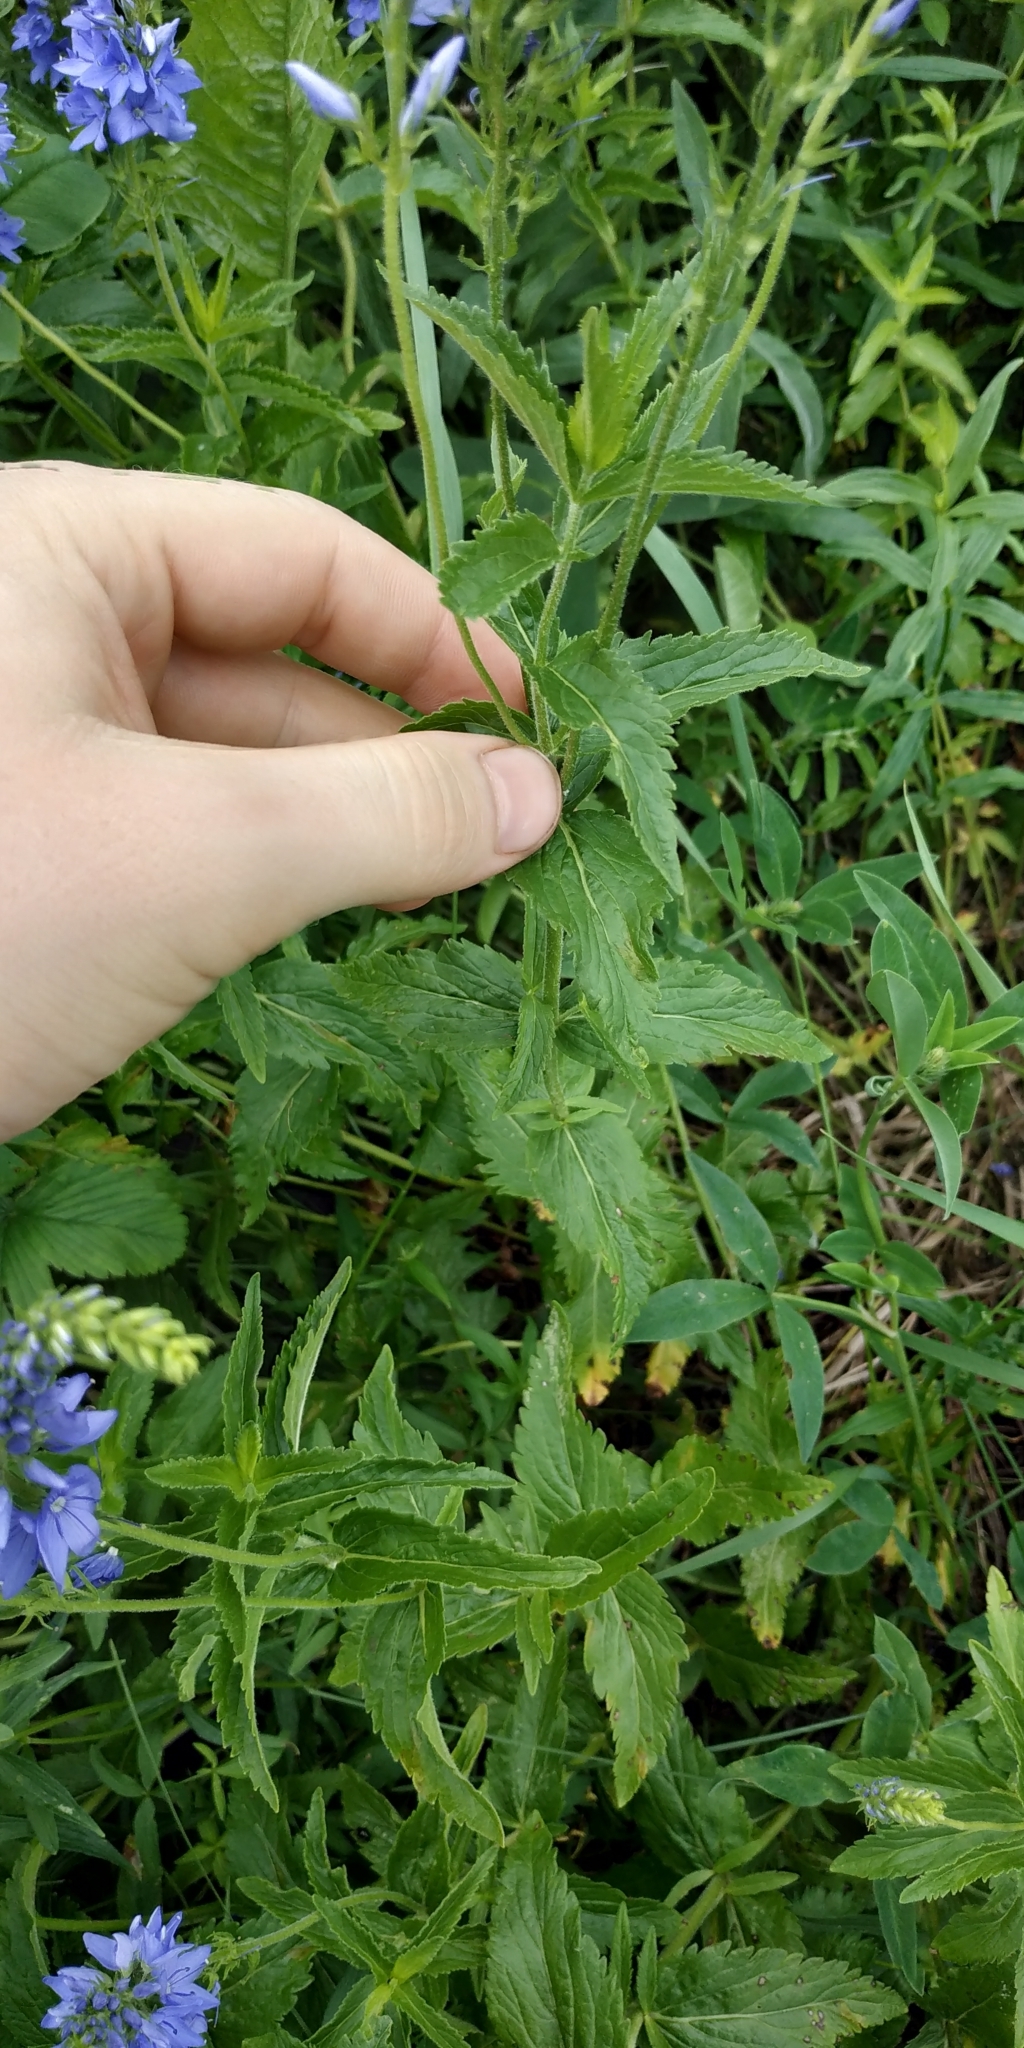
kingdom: Plantae
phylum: Tracheophyta
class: Magnoliopsida
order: Lamiales
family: Plantaginaceae
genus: Veronica
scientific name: Veronica teucrium
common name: Large speedwell
